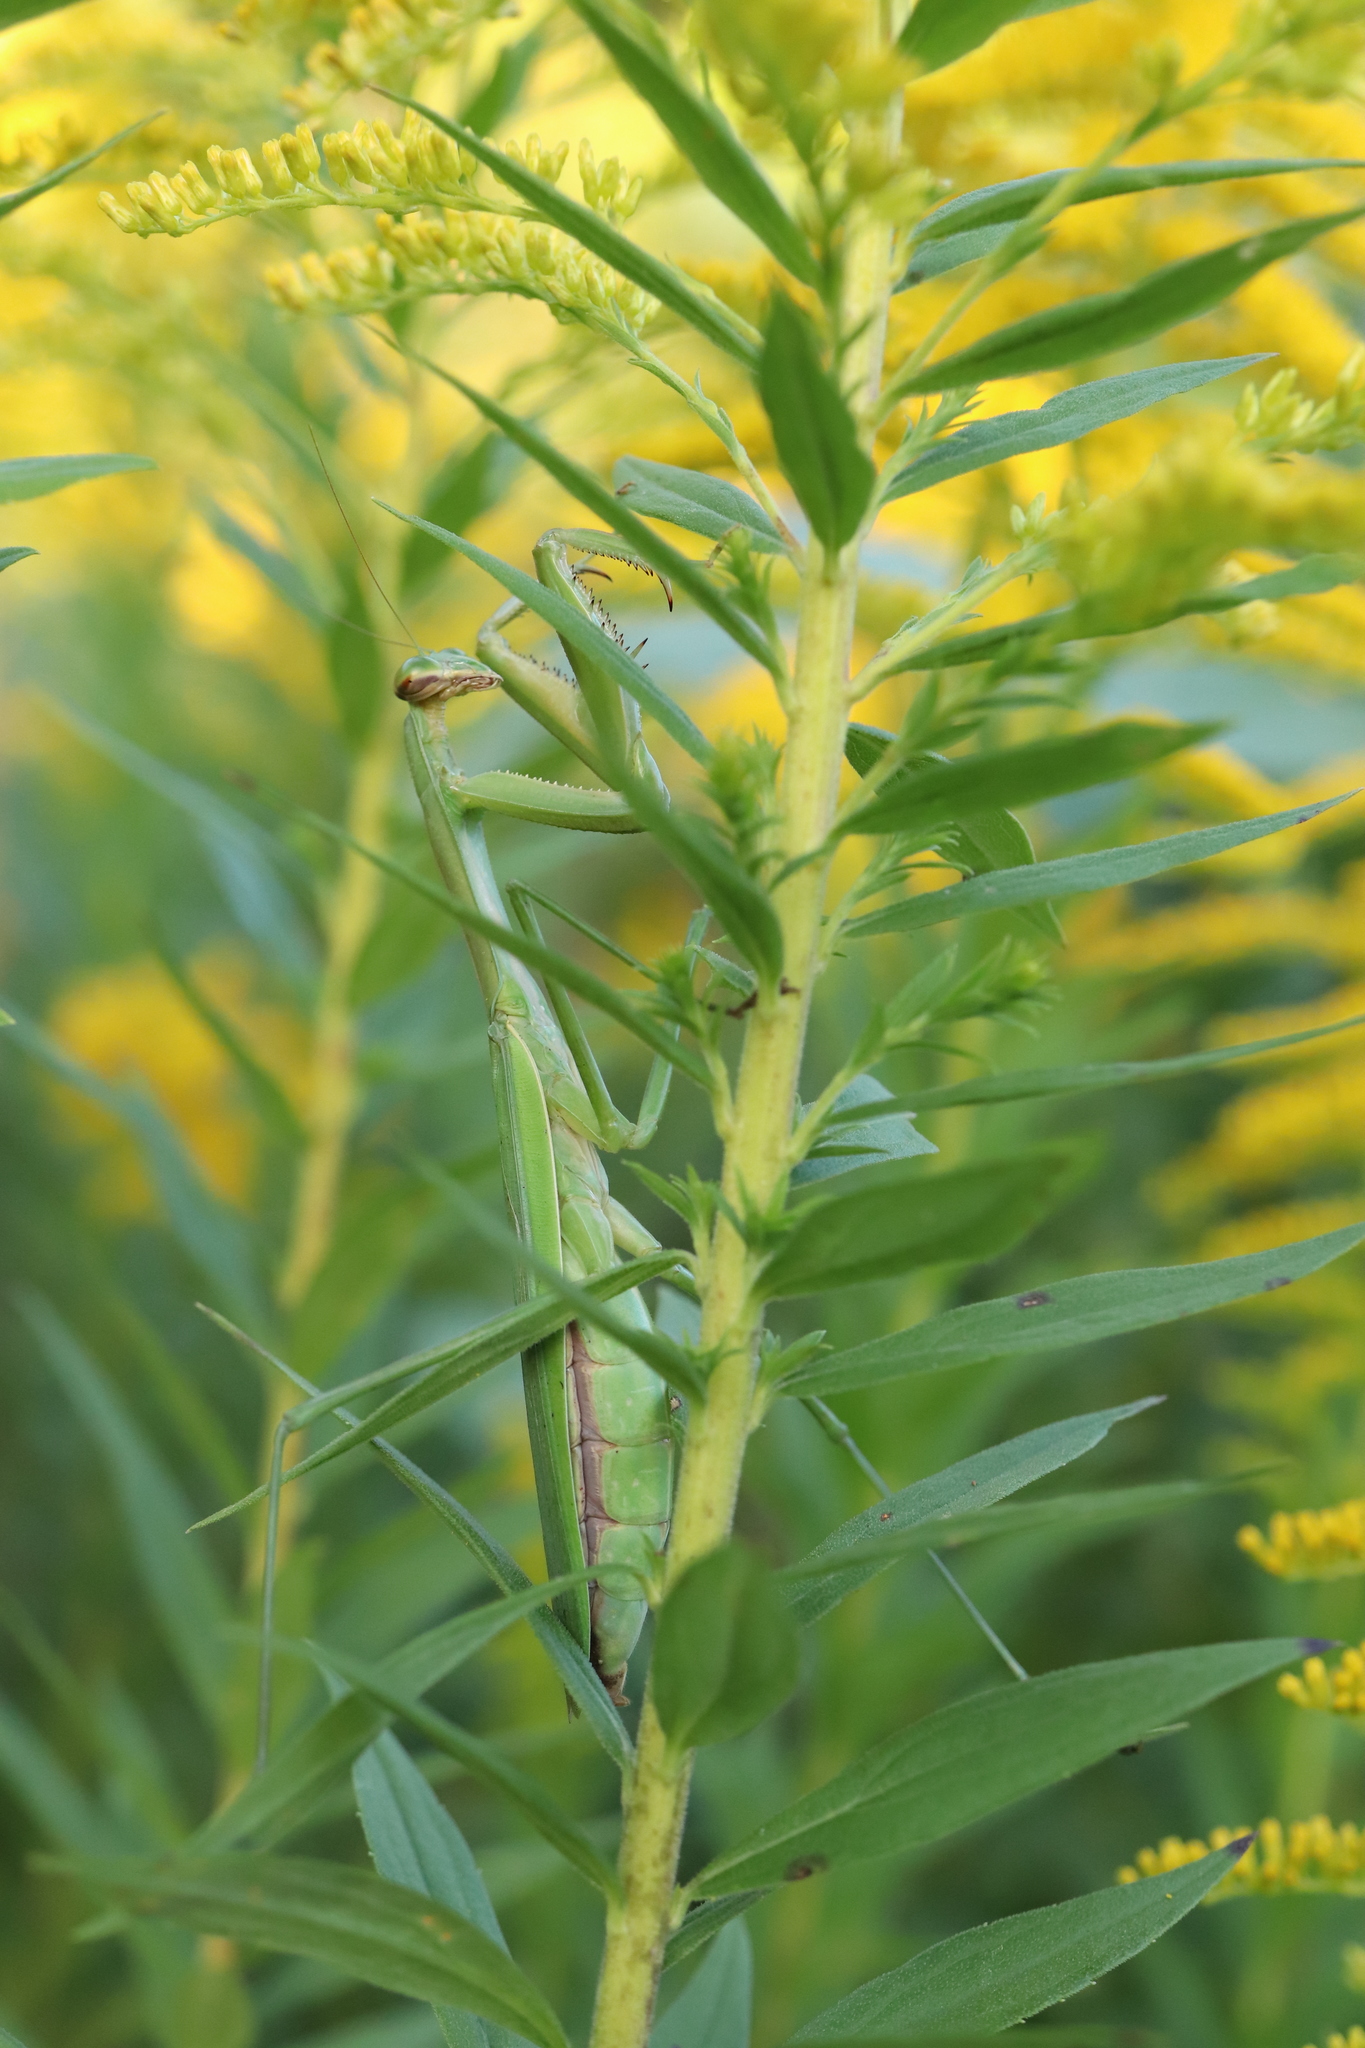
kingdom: Animalia
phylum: Arthropoda
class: Insecta
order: Mantodea
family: Mantidae
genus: Tenodera
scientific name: Tenodera sinensis
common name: Chinese mantis
